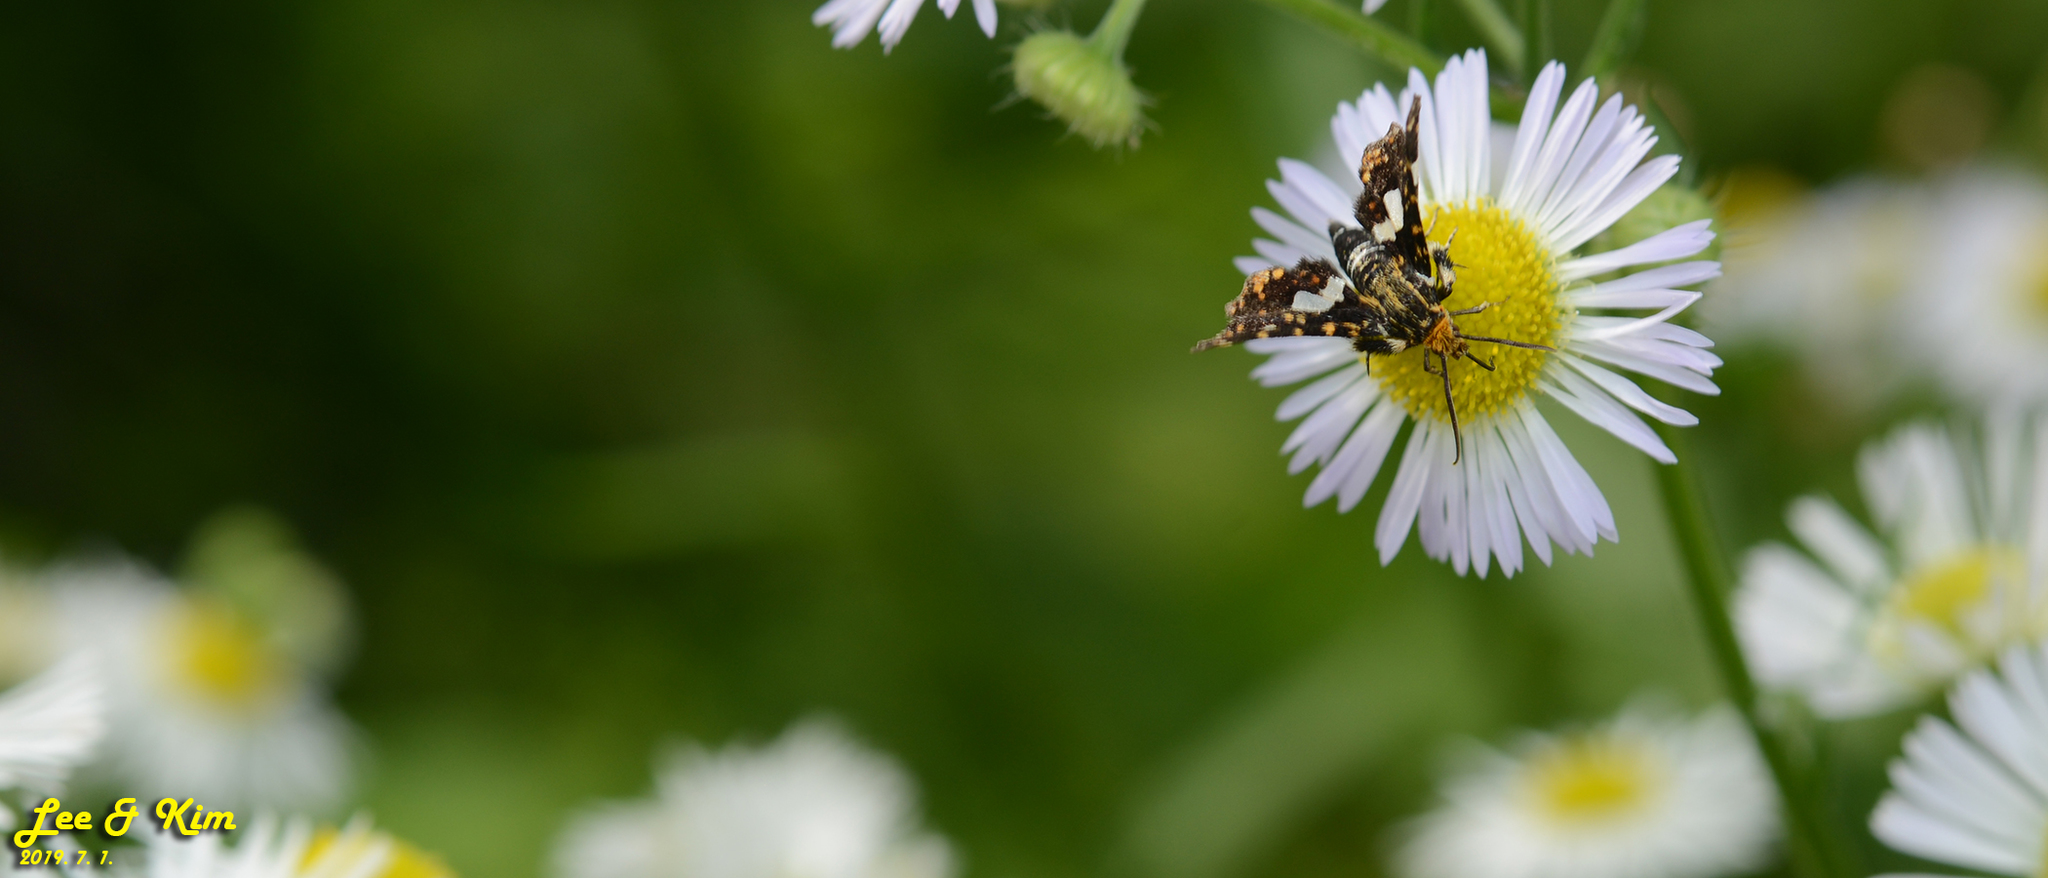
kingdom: Animalia
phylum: Arthropoda
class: Insecta
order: Lepidoptera
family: Thyrididae
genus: Thyris
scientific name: Thyris fenestrella
